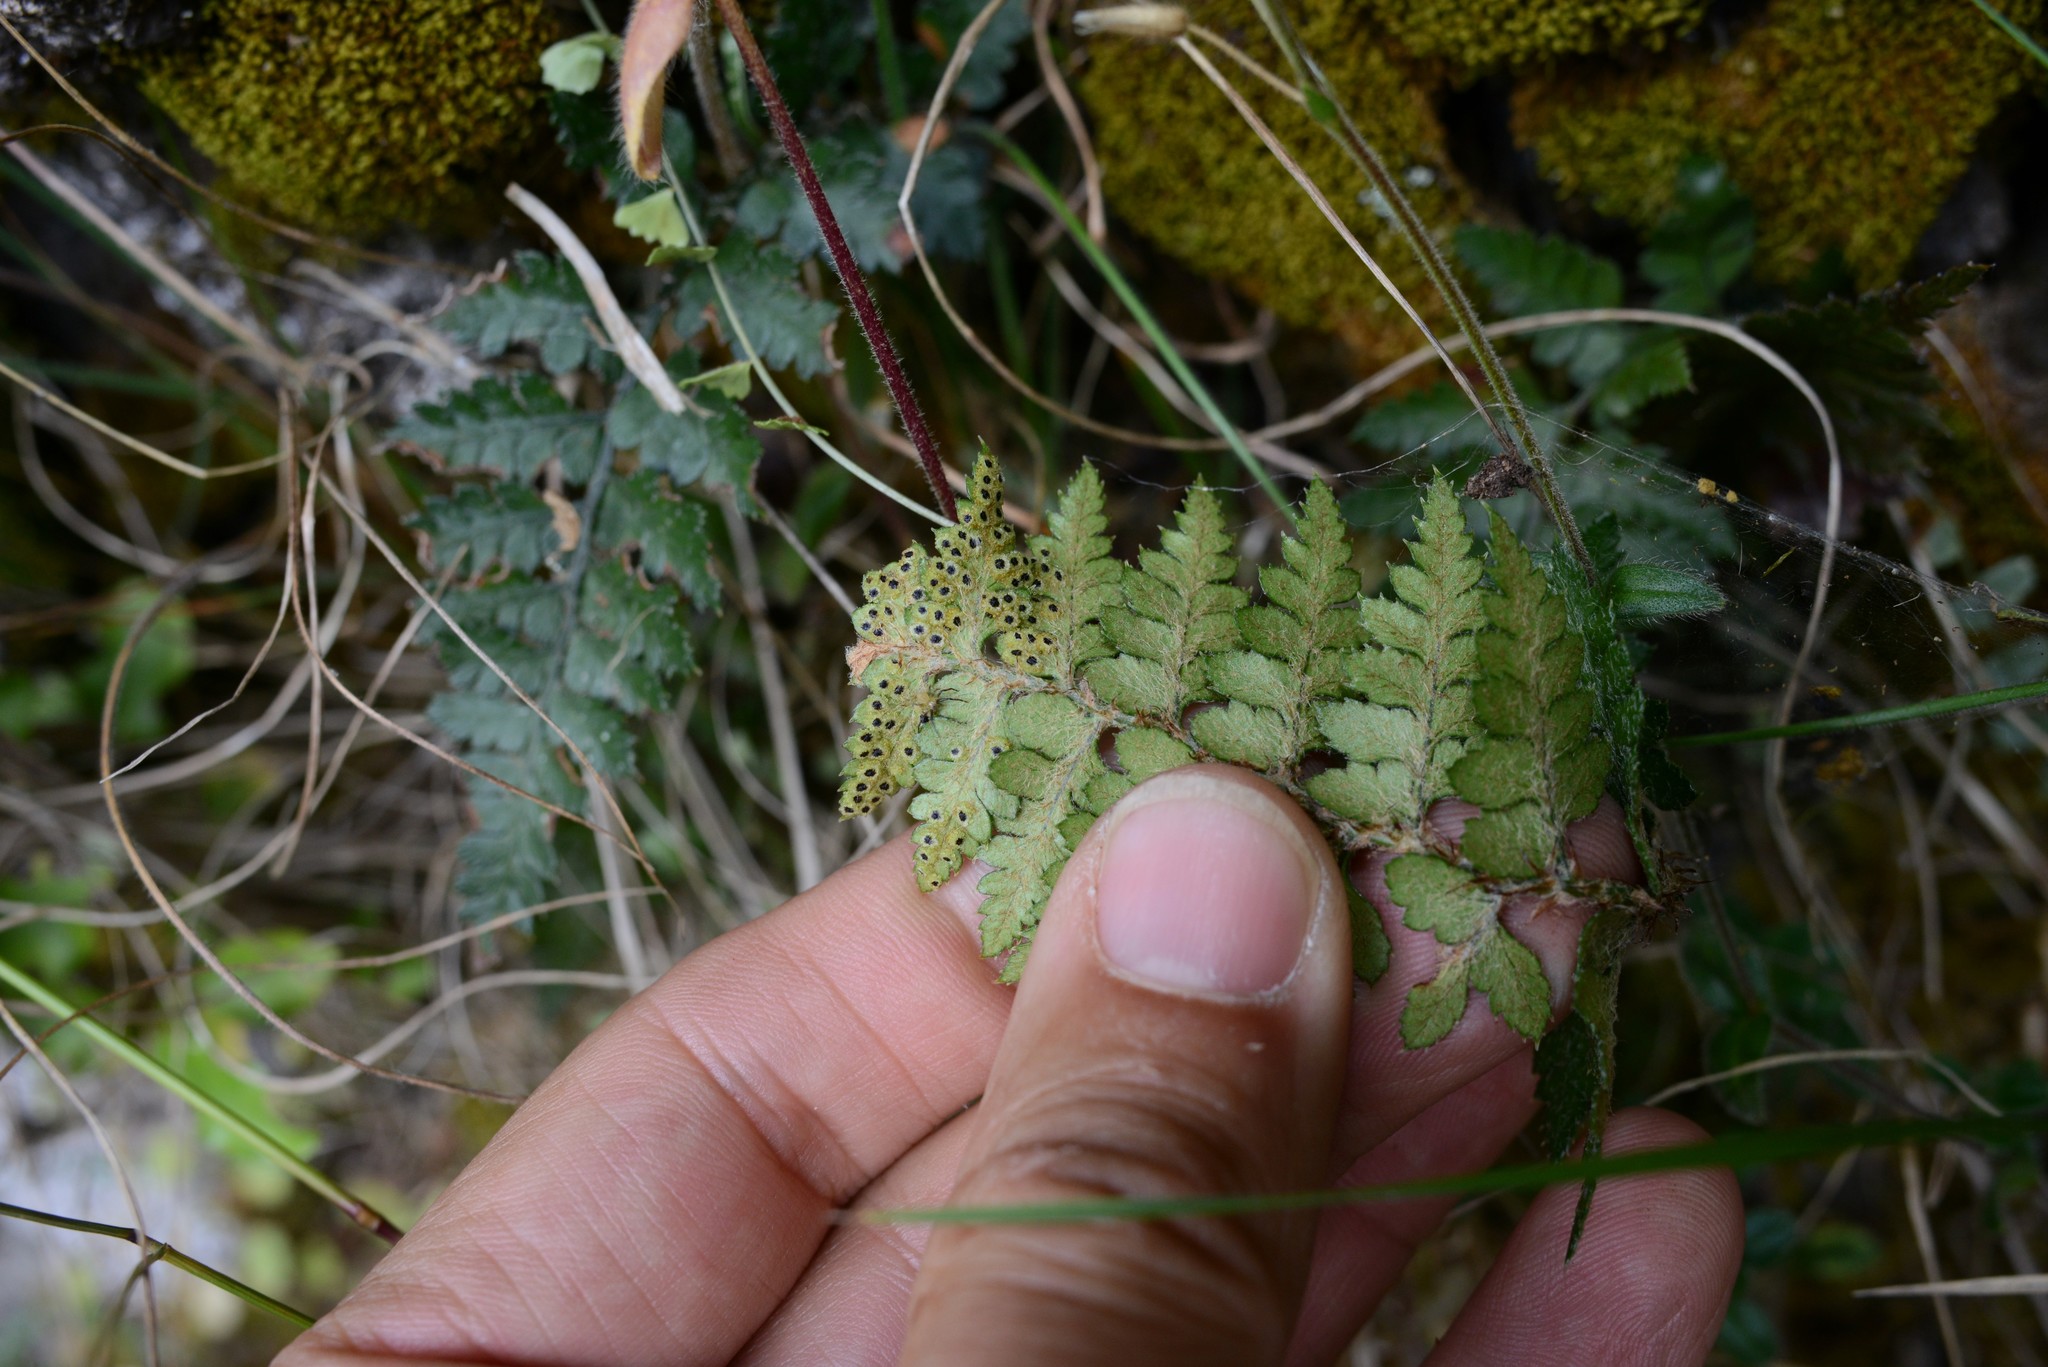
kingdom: Plantae
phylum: Tracheophyta
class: Polypodiopsida
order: Polypodiales
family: Dryopteridaceae
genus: Polystichum
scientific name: Polystichum oculatum
